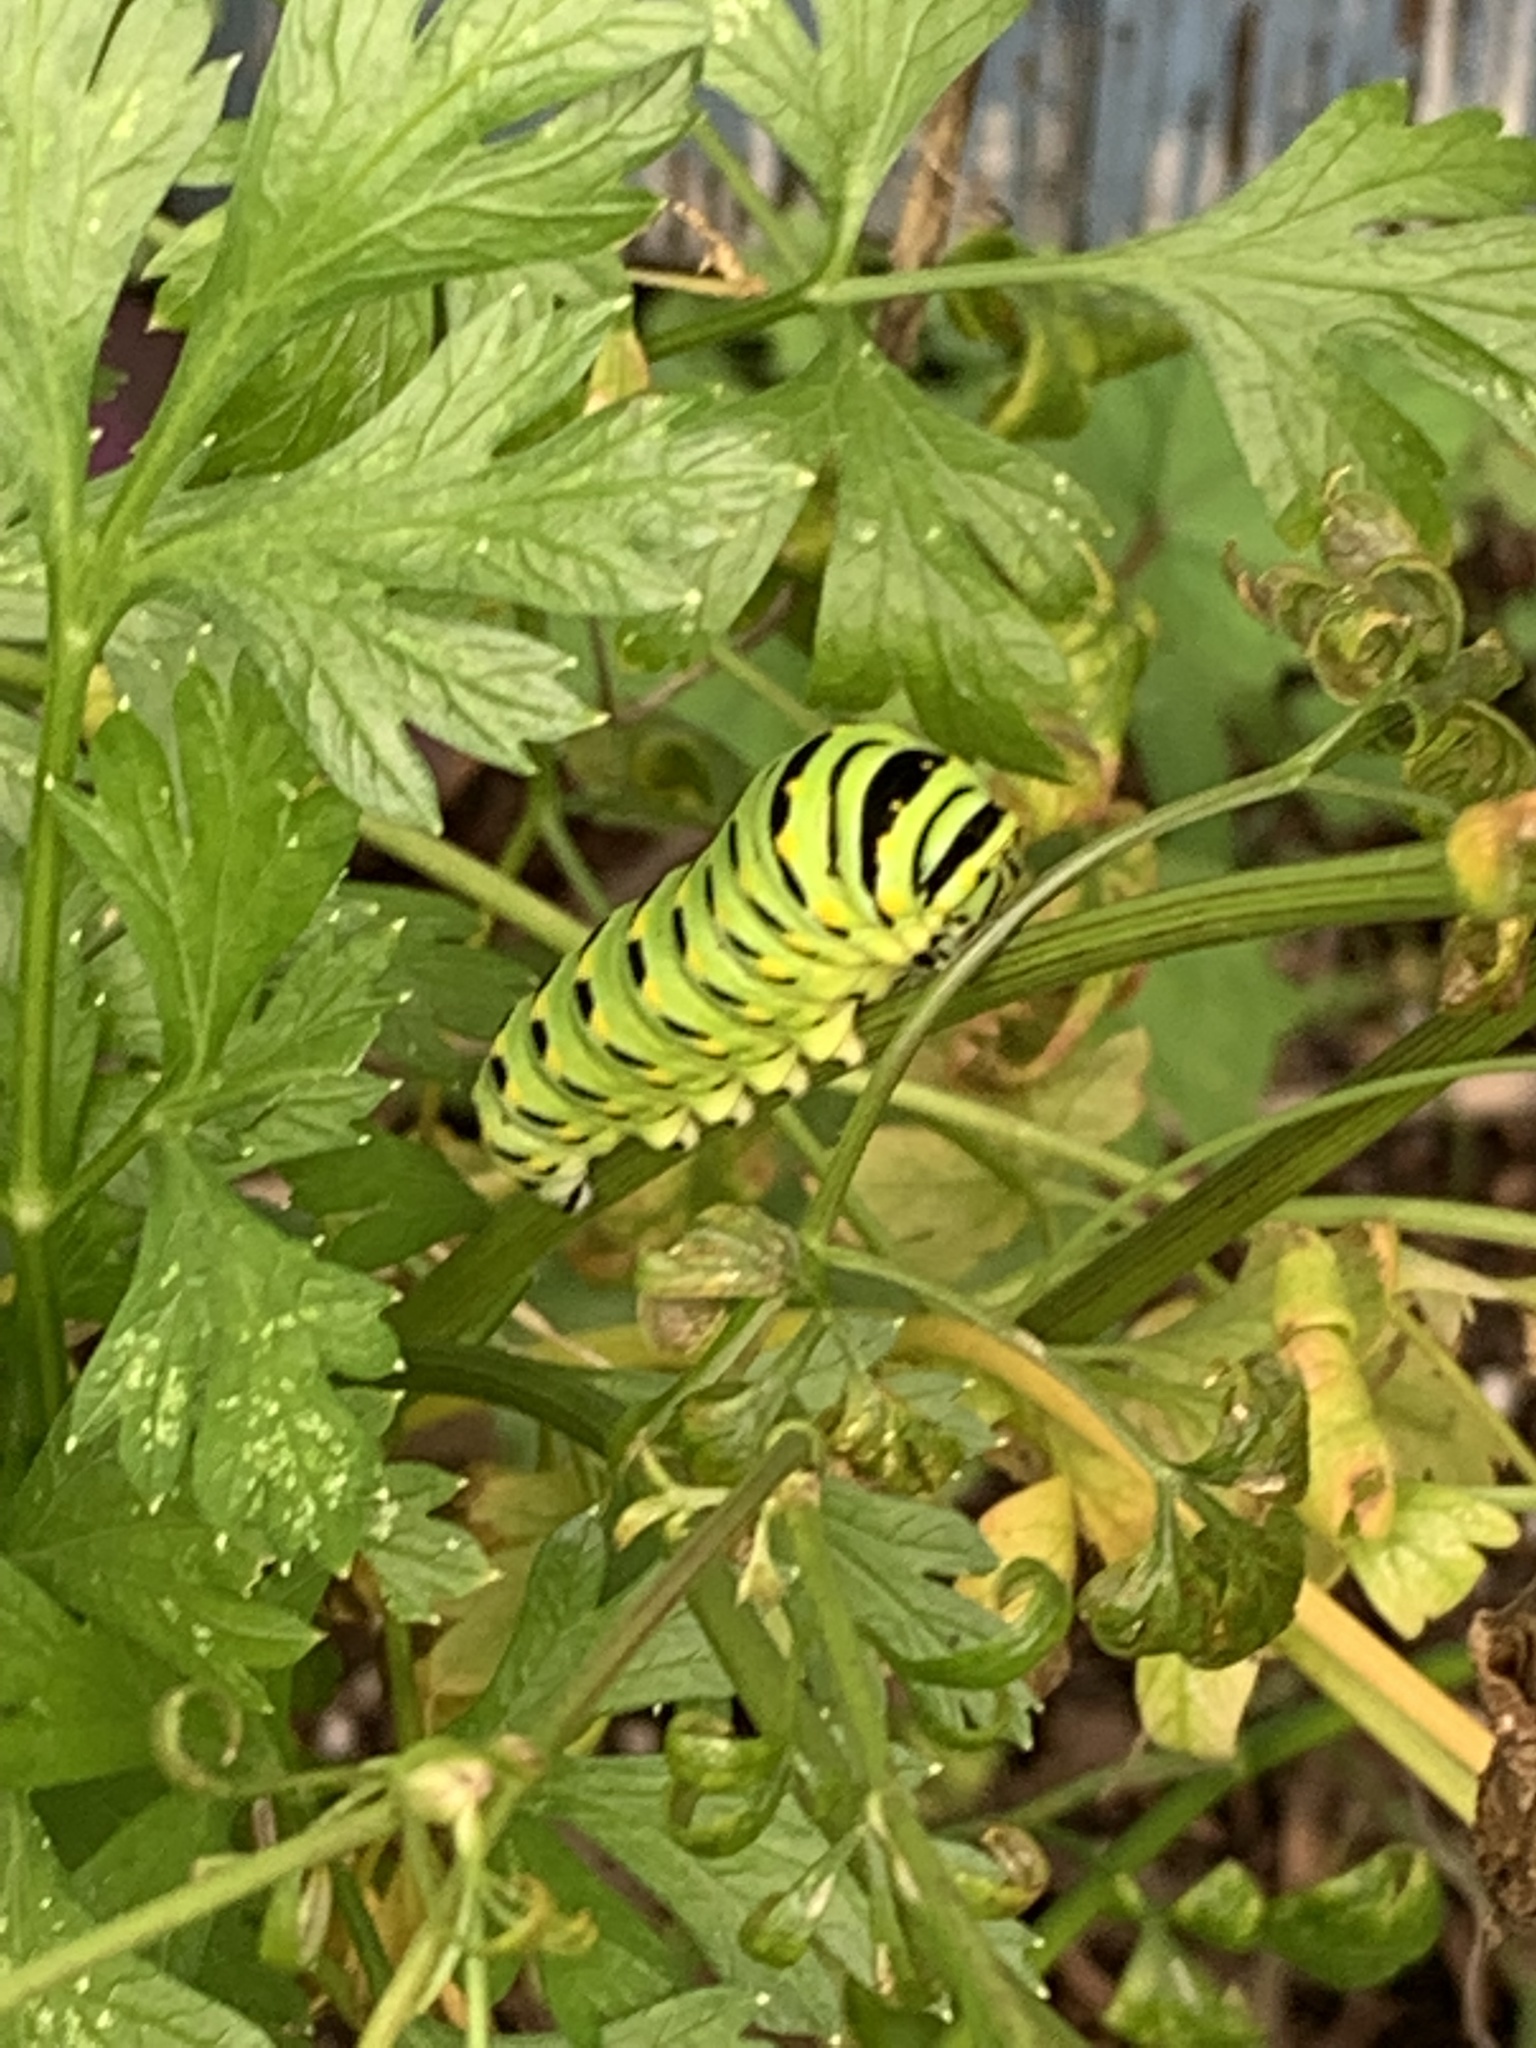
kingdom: Animalia
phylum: Arthropoda
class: Insecta
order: Lepidoptera
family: Papilionidae
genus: Papilio
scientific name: Papilio polyxenes
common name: Black swallowtail
